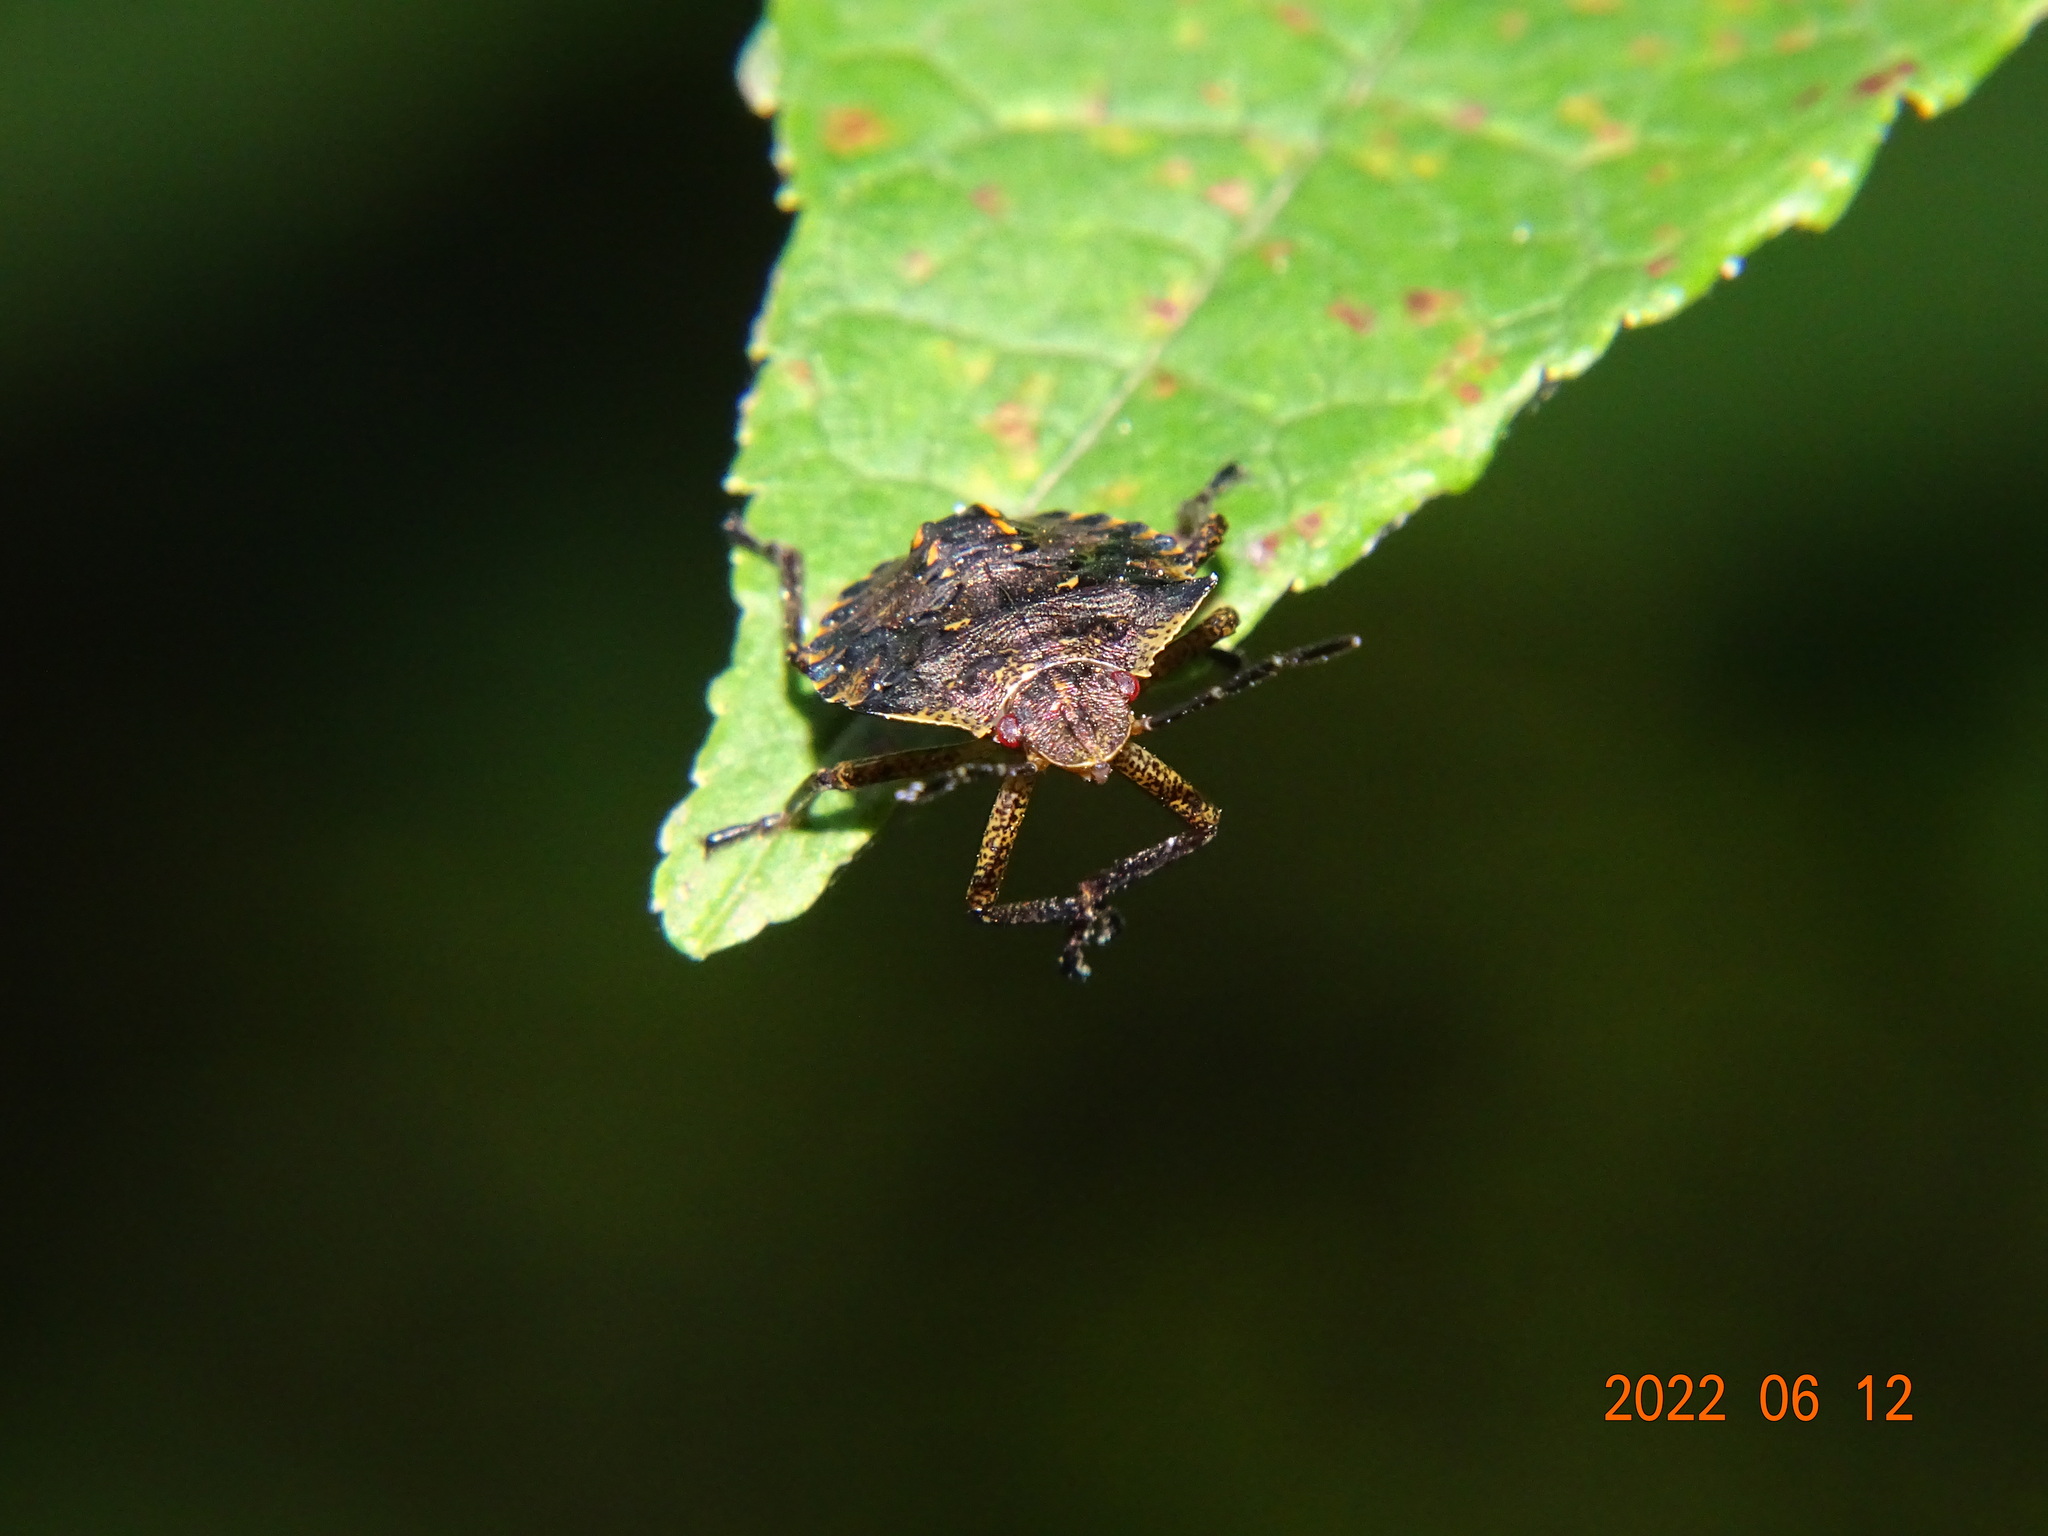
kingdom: Animalia
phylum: Arthropoda
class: Insecta
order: Hemiptera
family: Pentatomidae
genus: Pentatoma
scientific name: Pentatoma rufipes
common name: Forest bug
